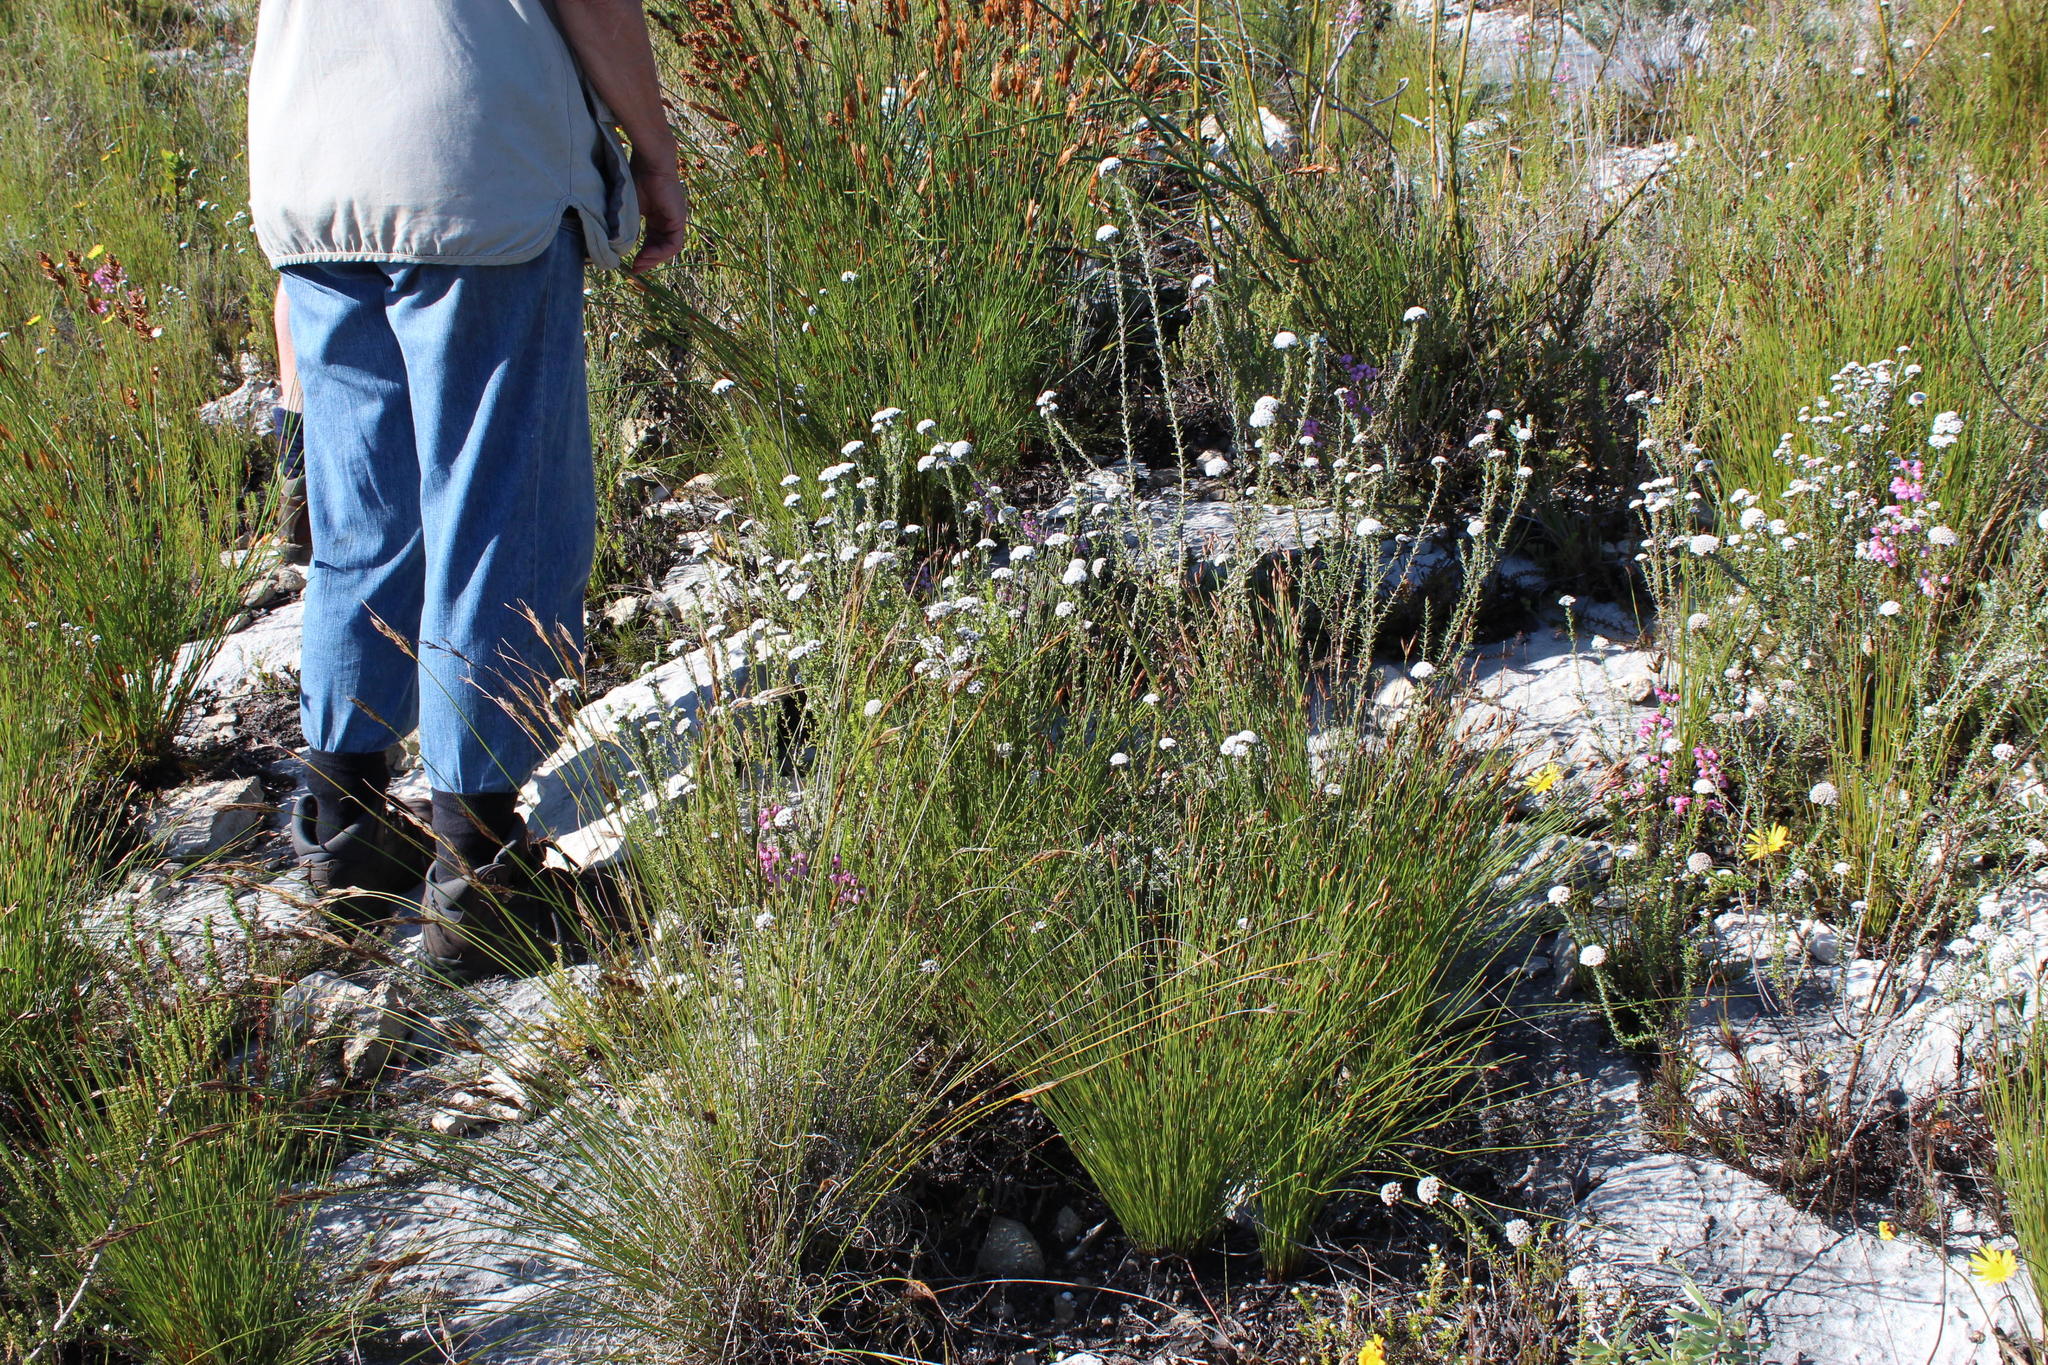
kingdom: Plantae
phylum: Tracheophyta
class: Magnoliopsida
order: Asterales
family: Asteraceae
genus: Metalasia
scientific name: Metalasia calcicola
